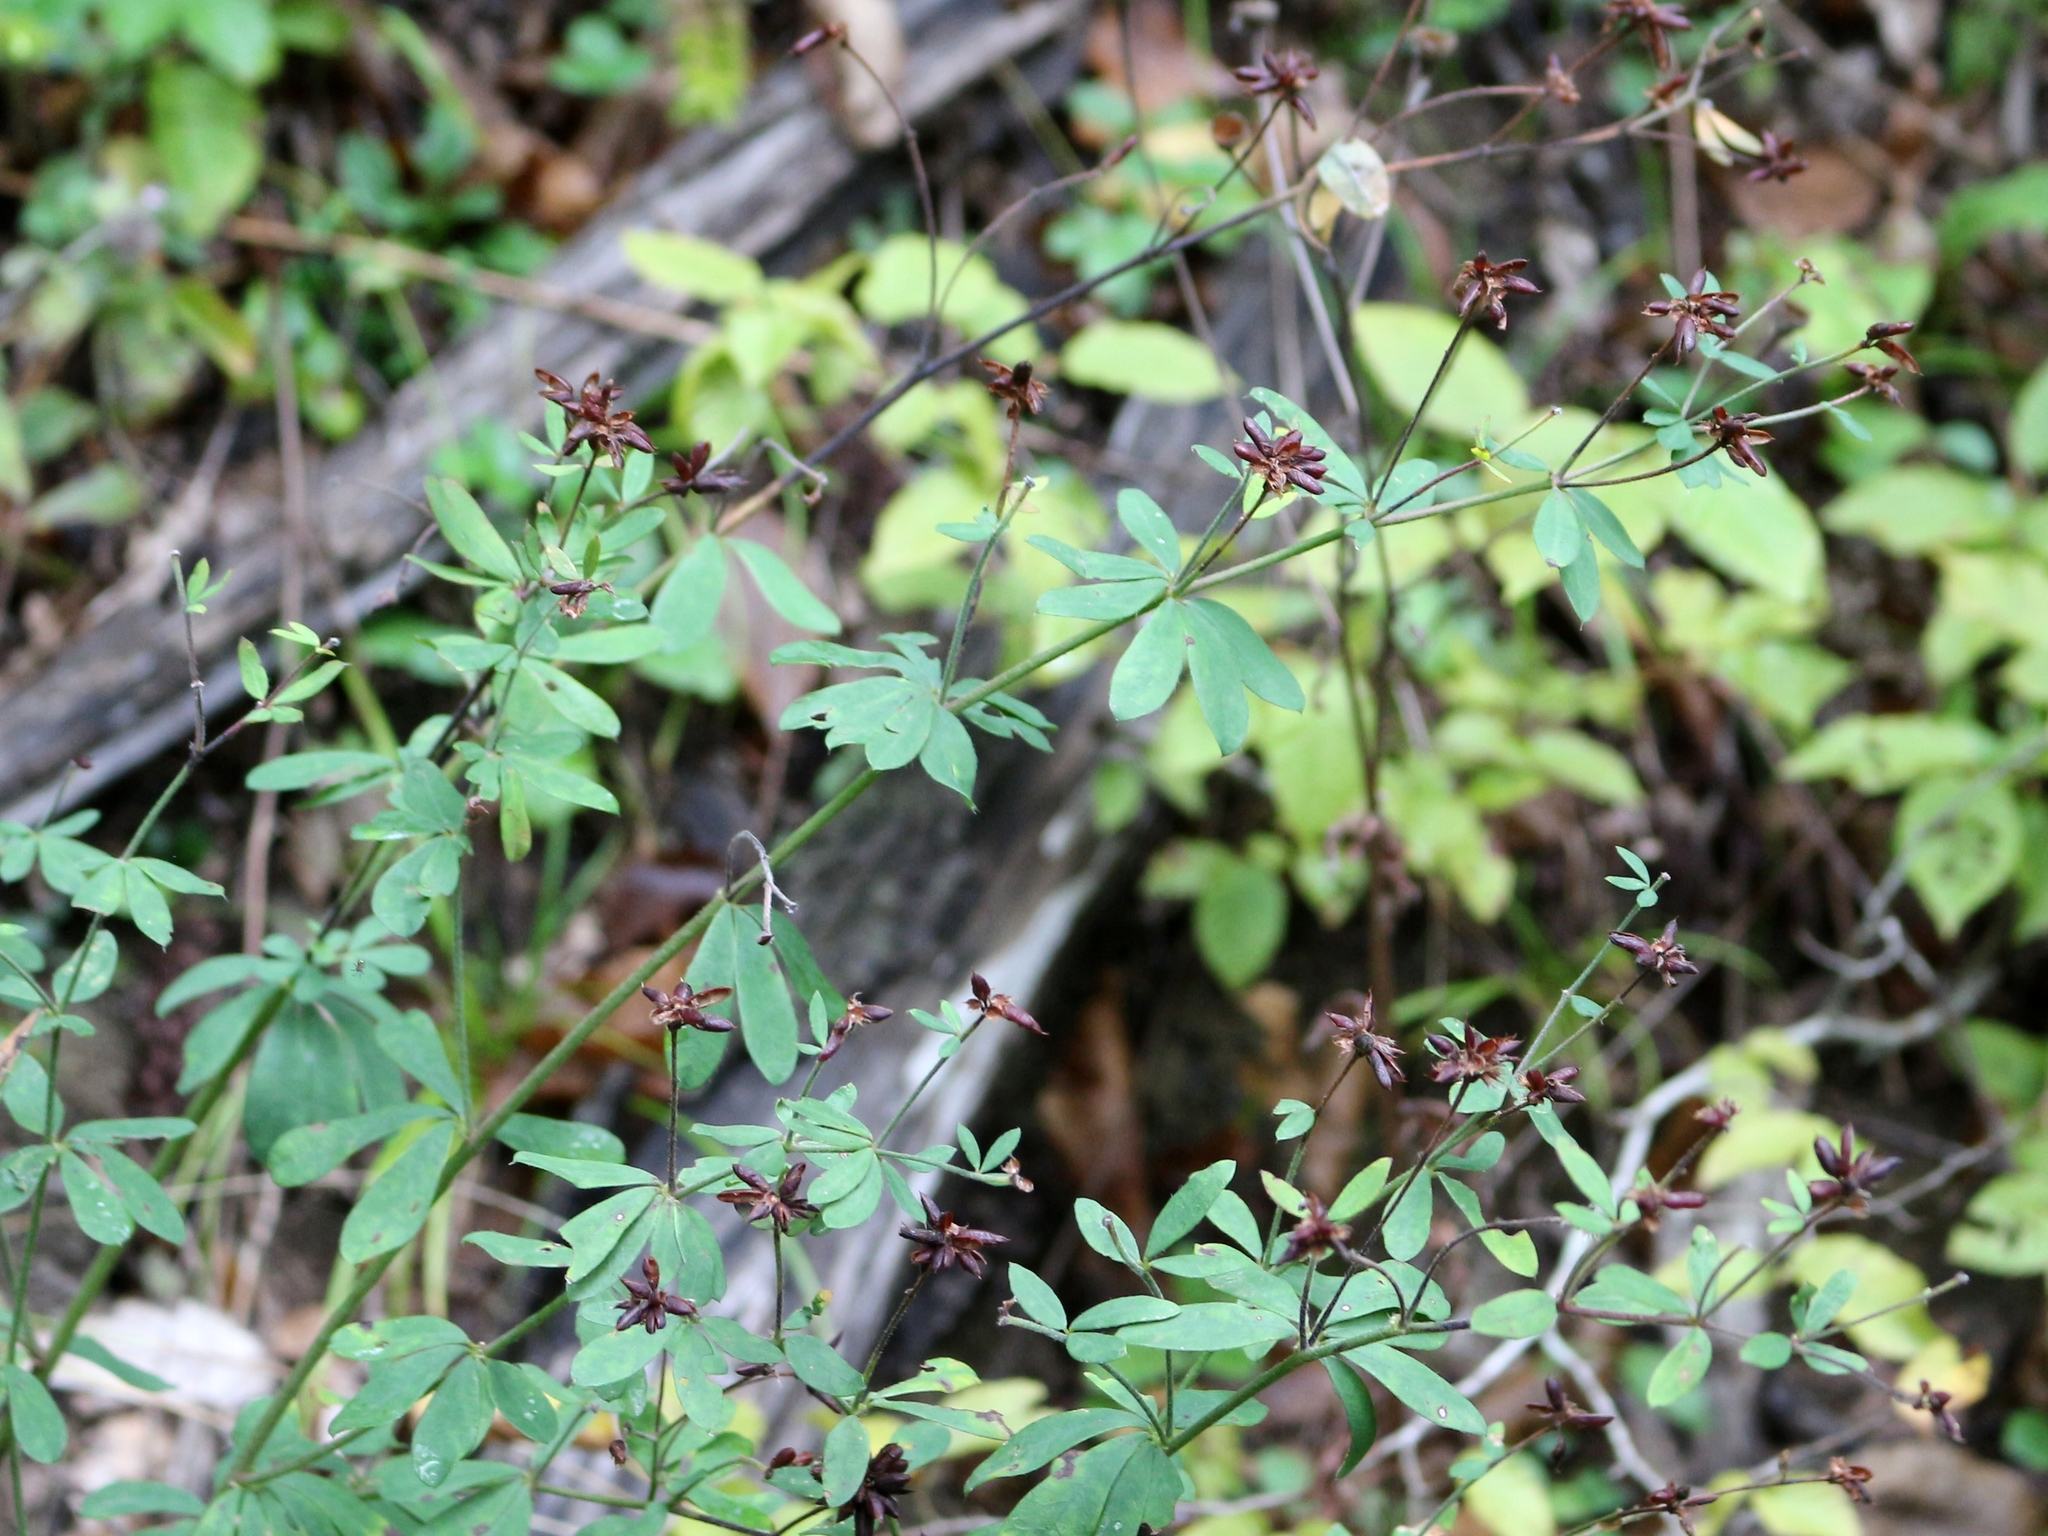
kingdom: Plantae
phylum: Tracheophyta
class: Magnoliopsida
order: Fabales
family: Fabaceae
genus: Lotus
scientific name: Lotus graecus
